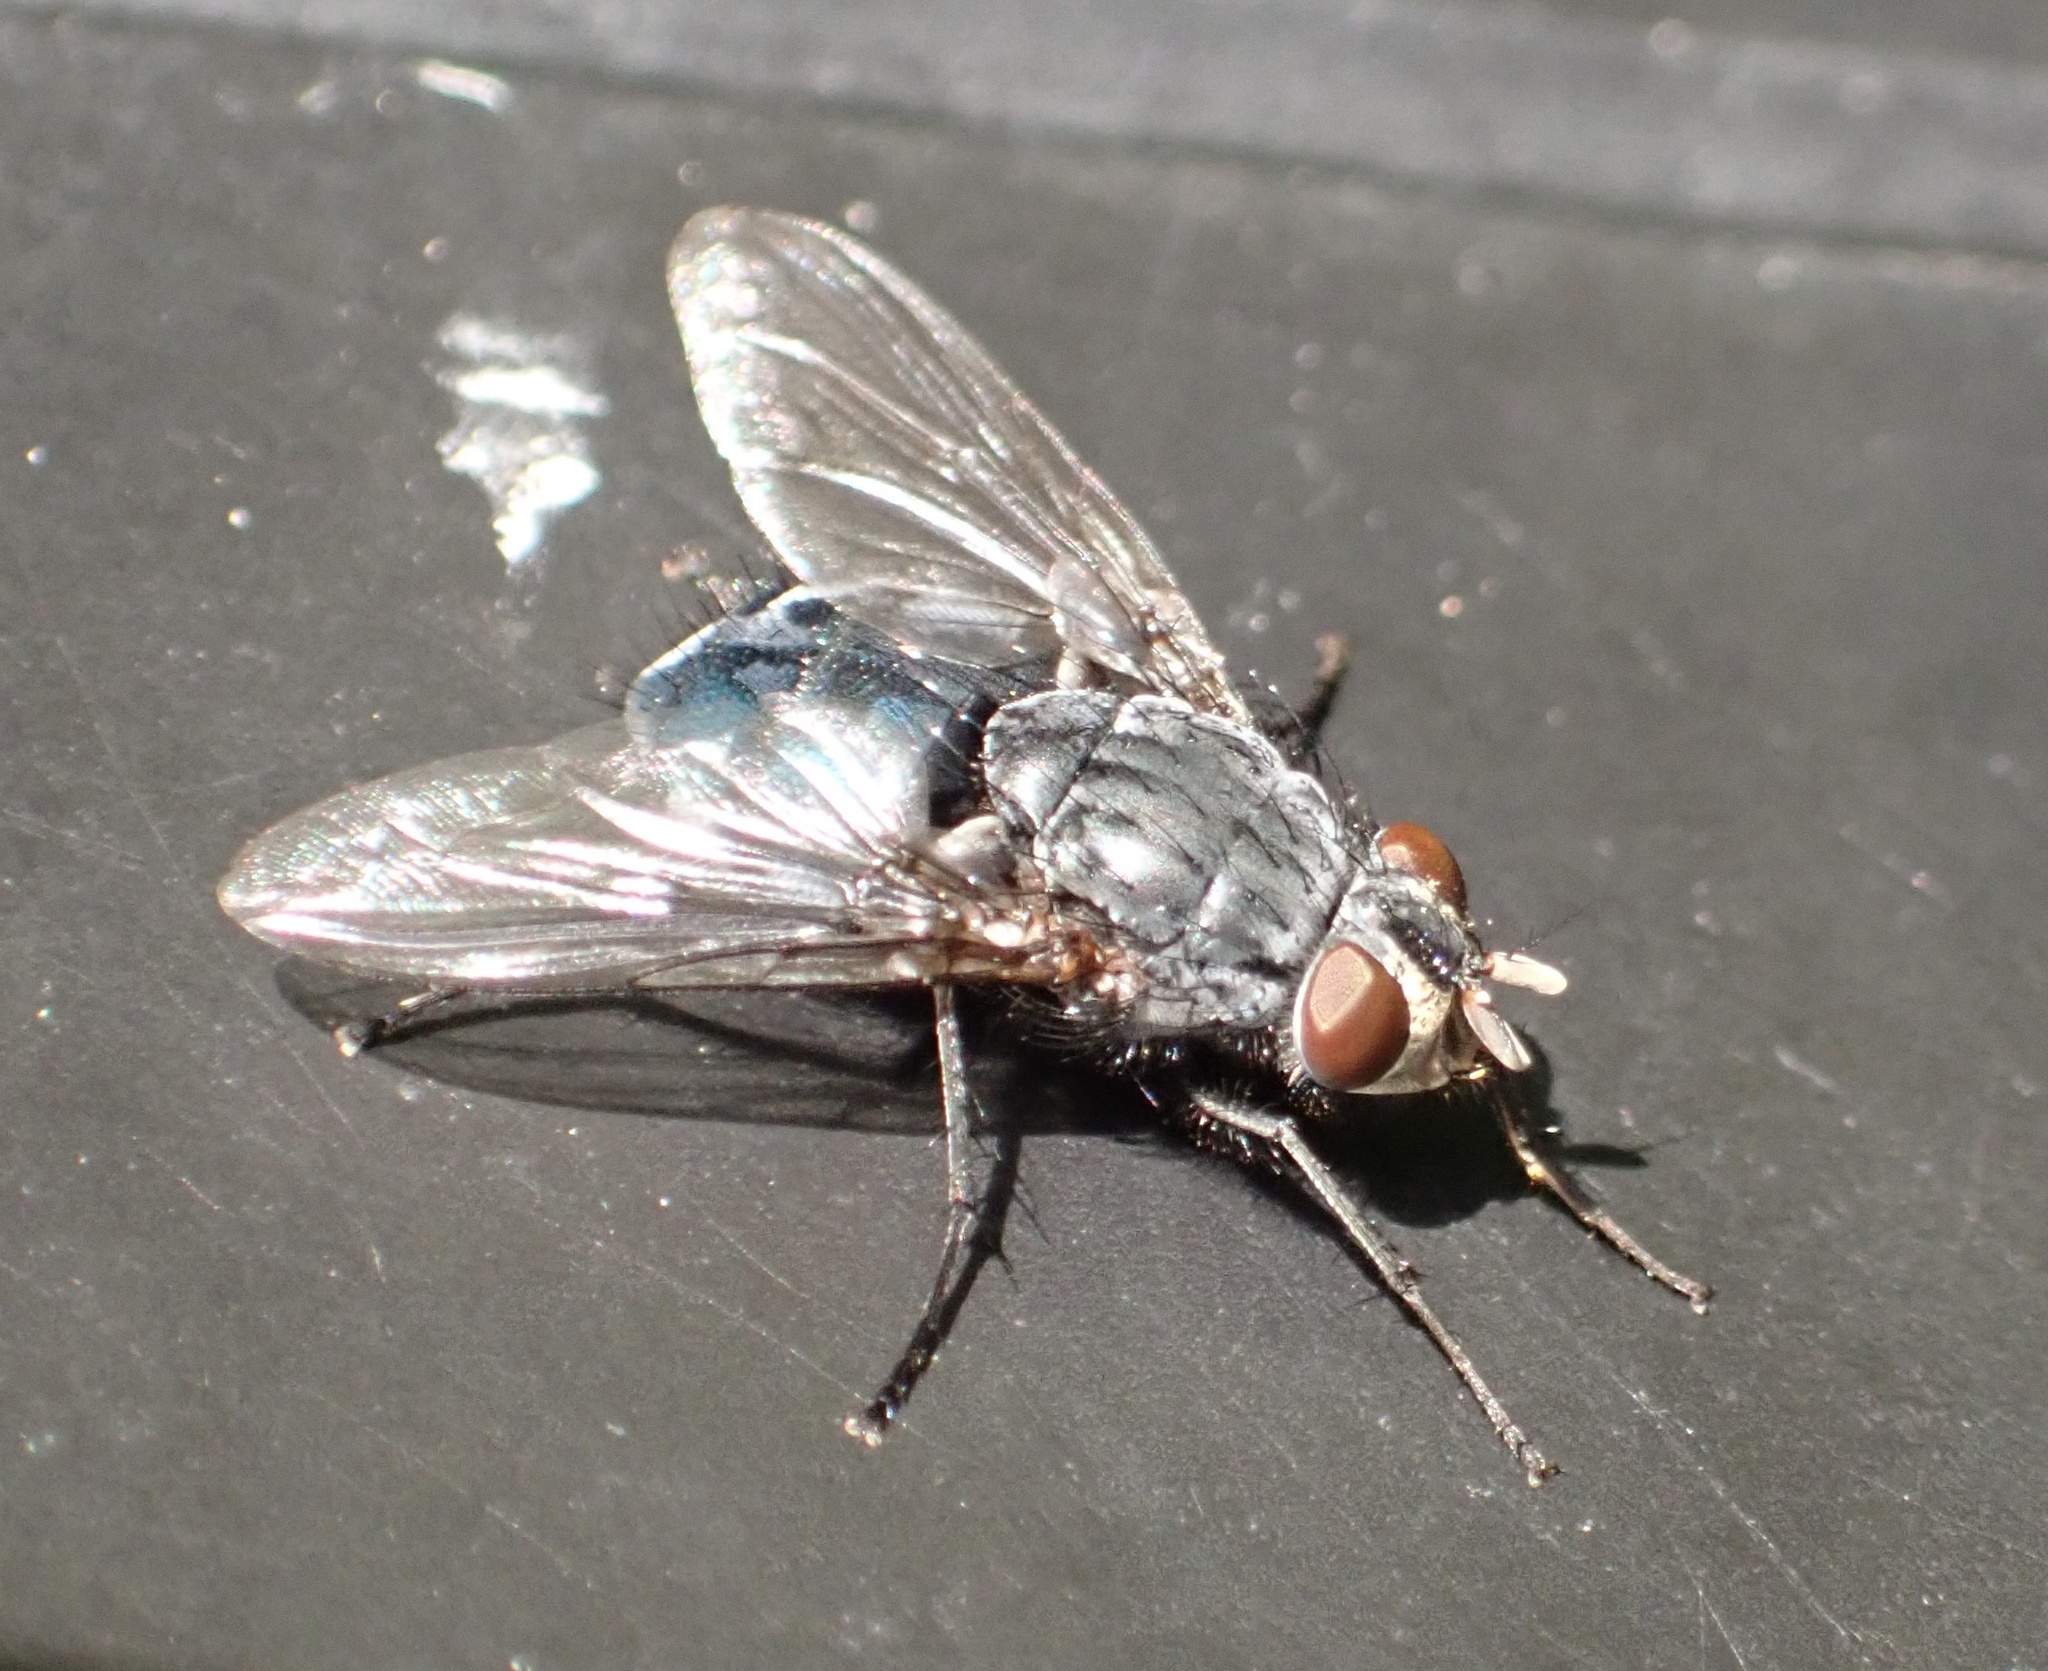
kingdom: Animalia
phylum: Arthropoda
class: Insecta
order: Diptera
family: Calliphoridae
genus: Calliphora
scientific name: Calliphora vicina
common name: Common blow flie
